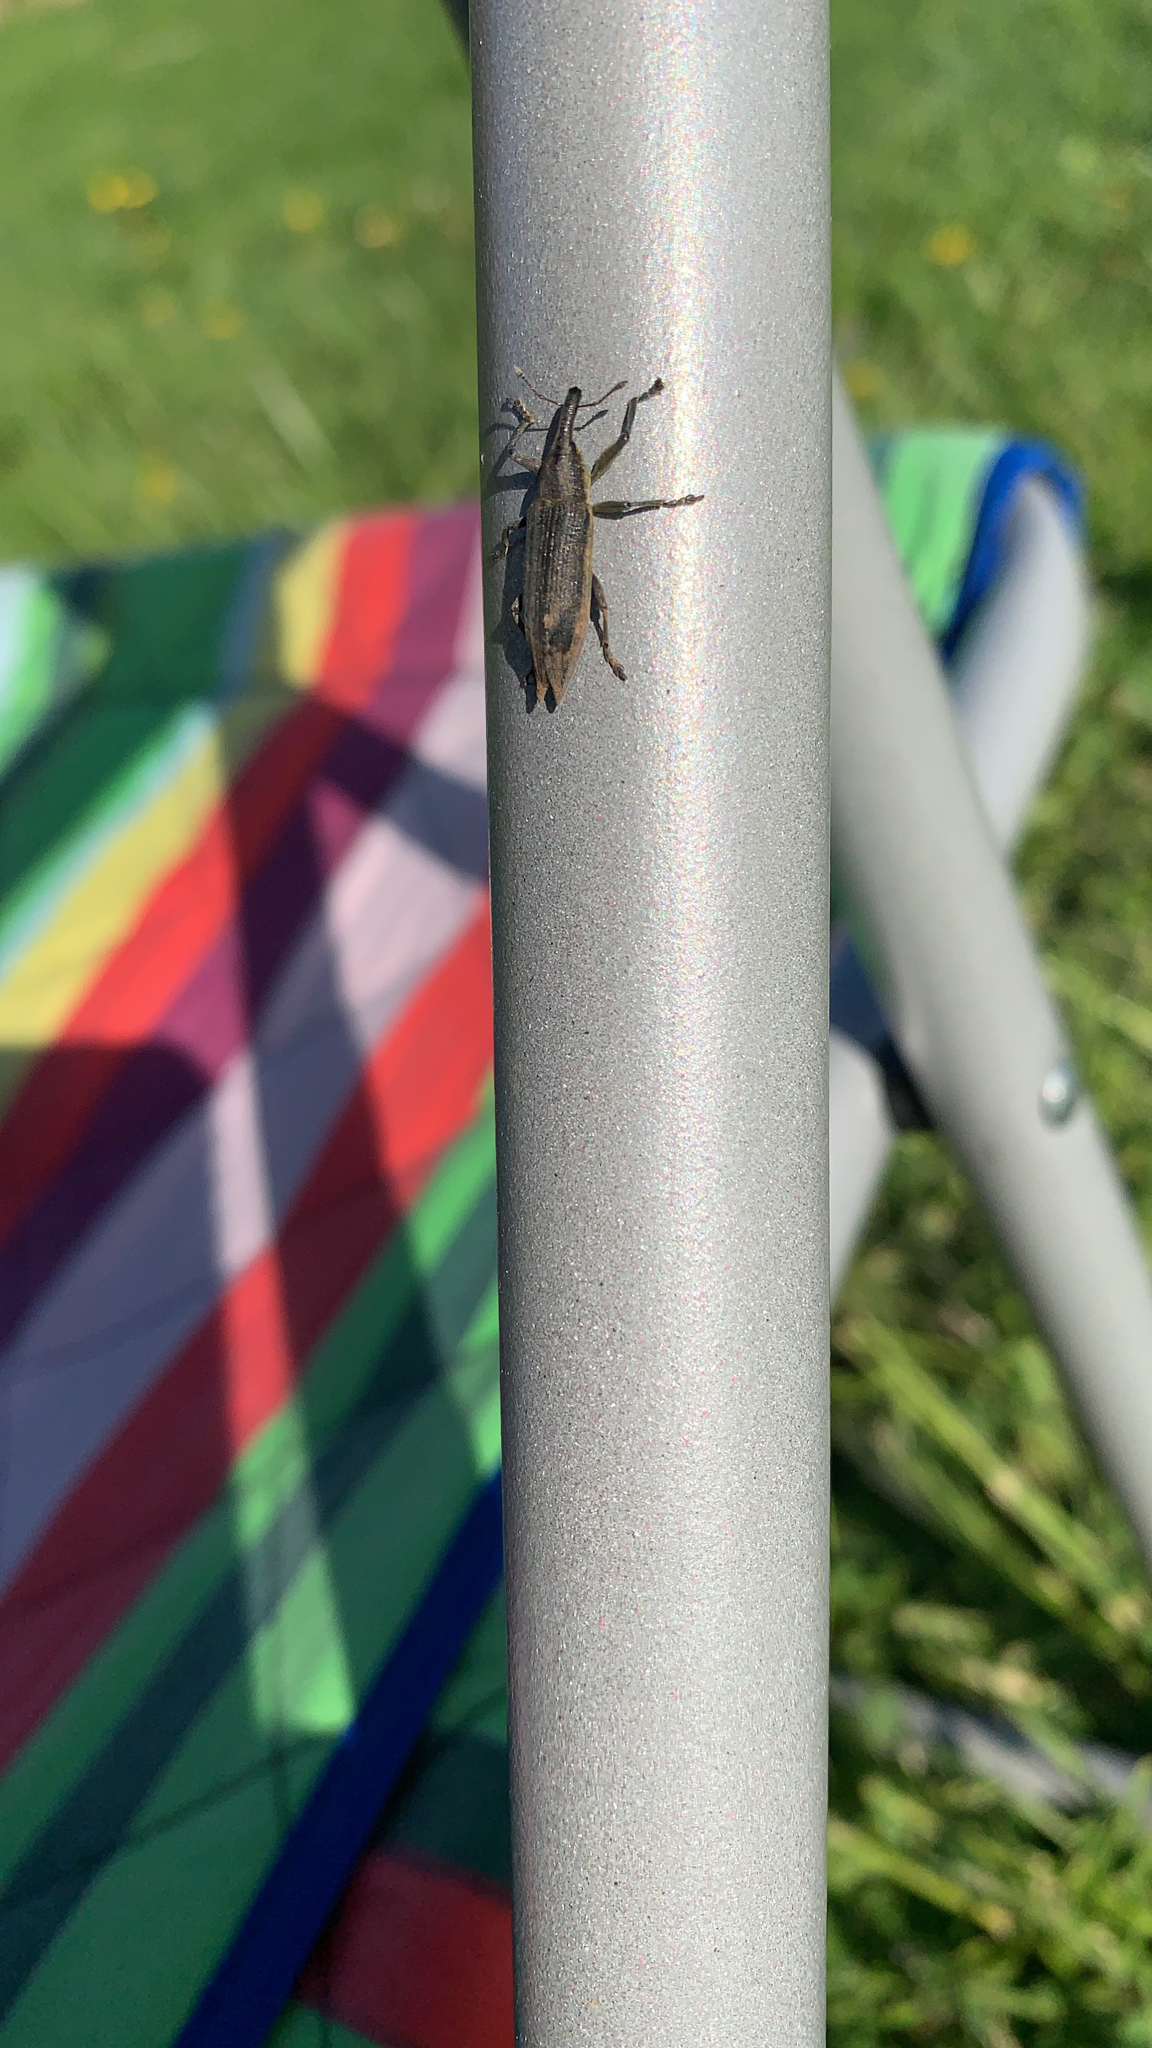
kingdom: Animalia
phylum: Arthropoda
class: Insecta
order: Coleoptera
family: Curculionidae
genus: Lixus
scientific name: Lixus iridis
